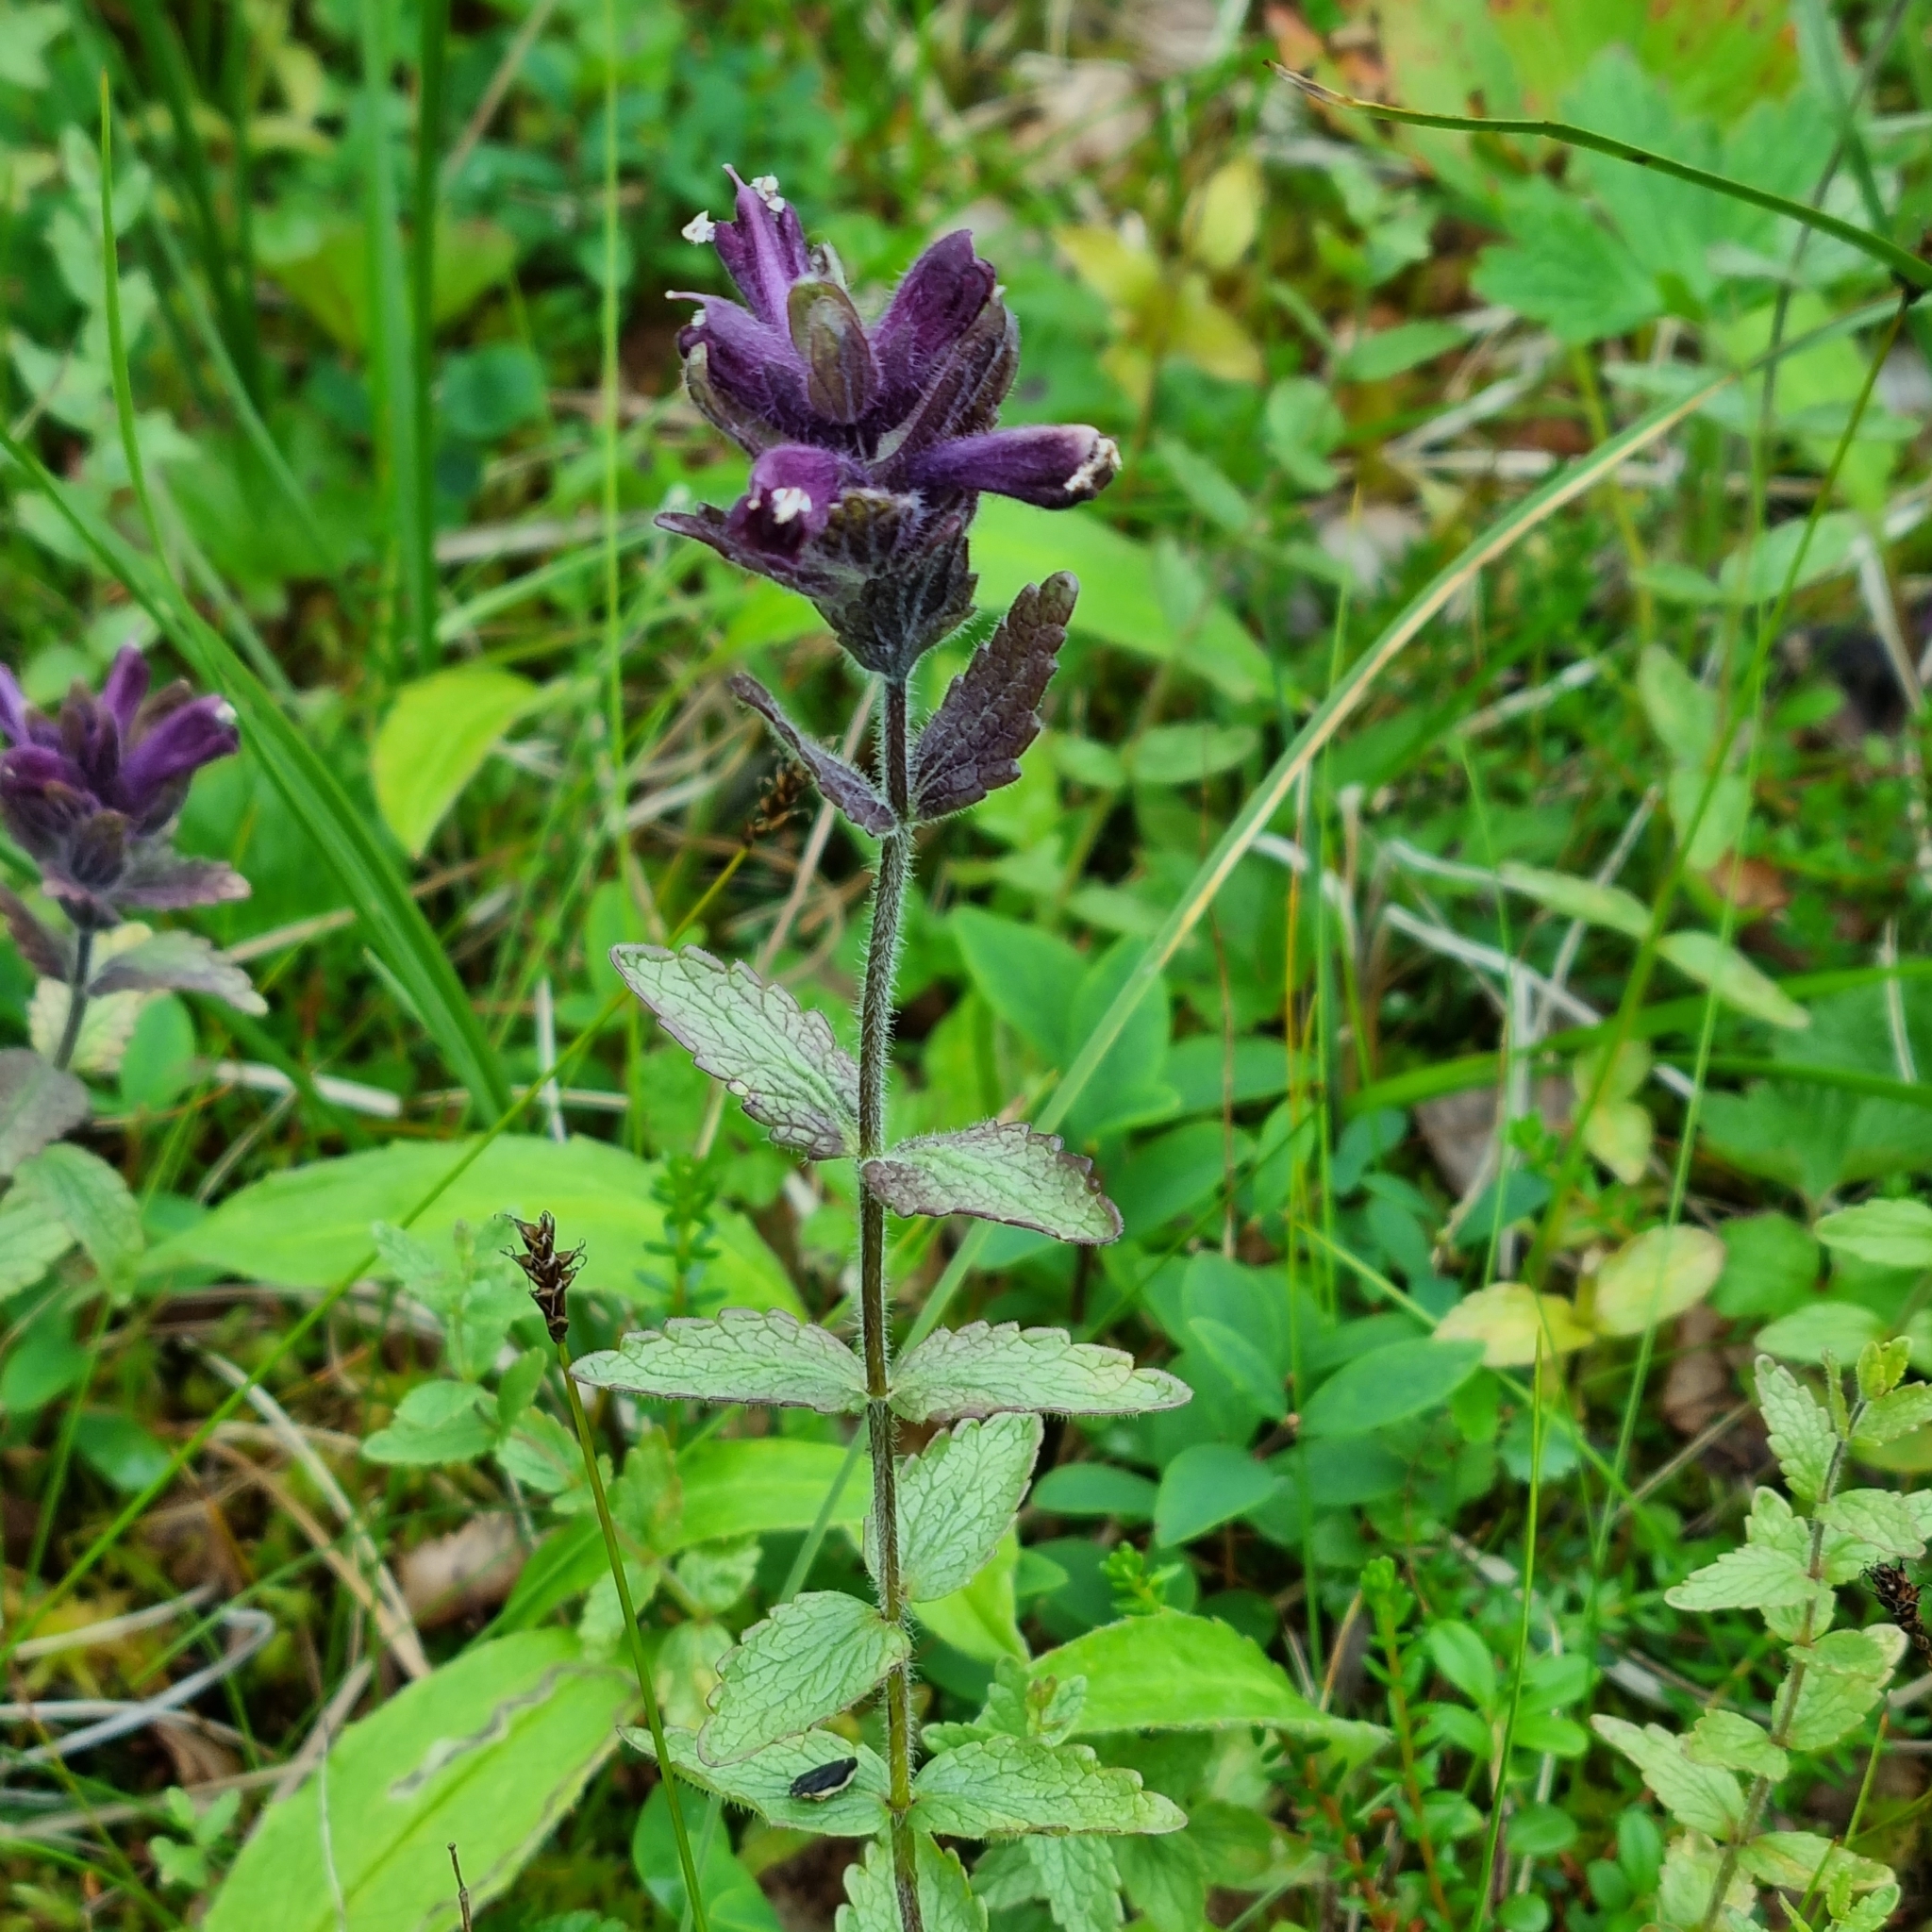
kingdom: Plantae
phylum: Tracheophyta
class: Magnoliopsida
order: Lamiales
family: Orobanchaceae
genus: Bartsia
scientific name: Bartsia alpina
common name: Alpine bartsia
